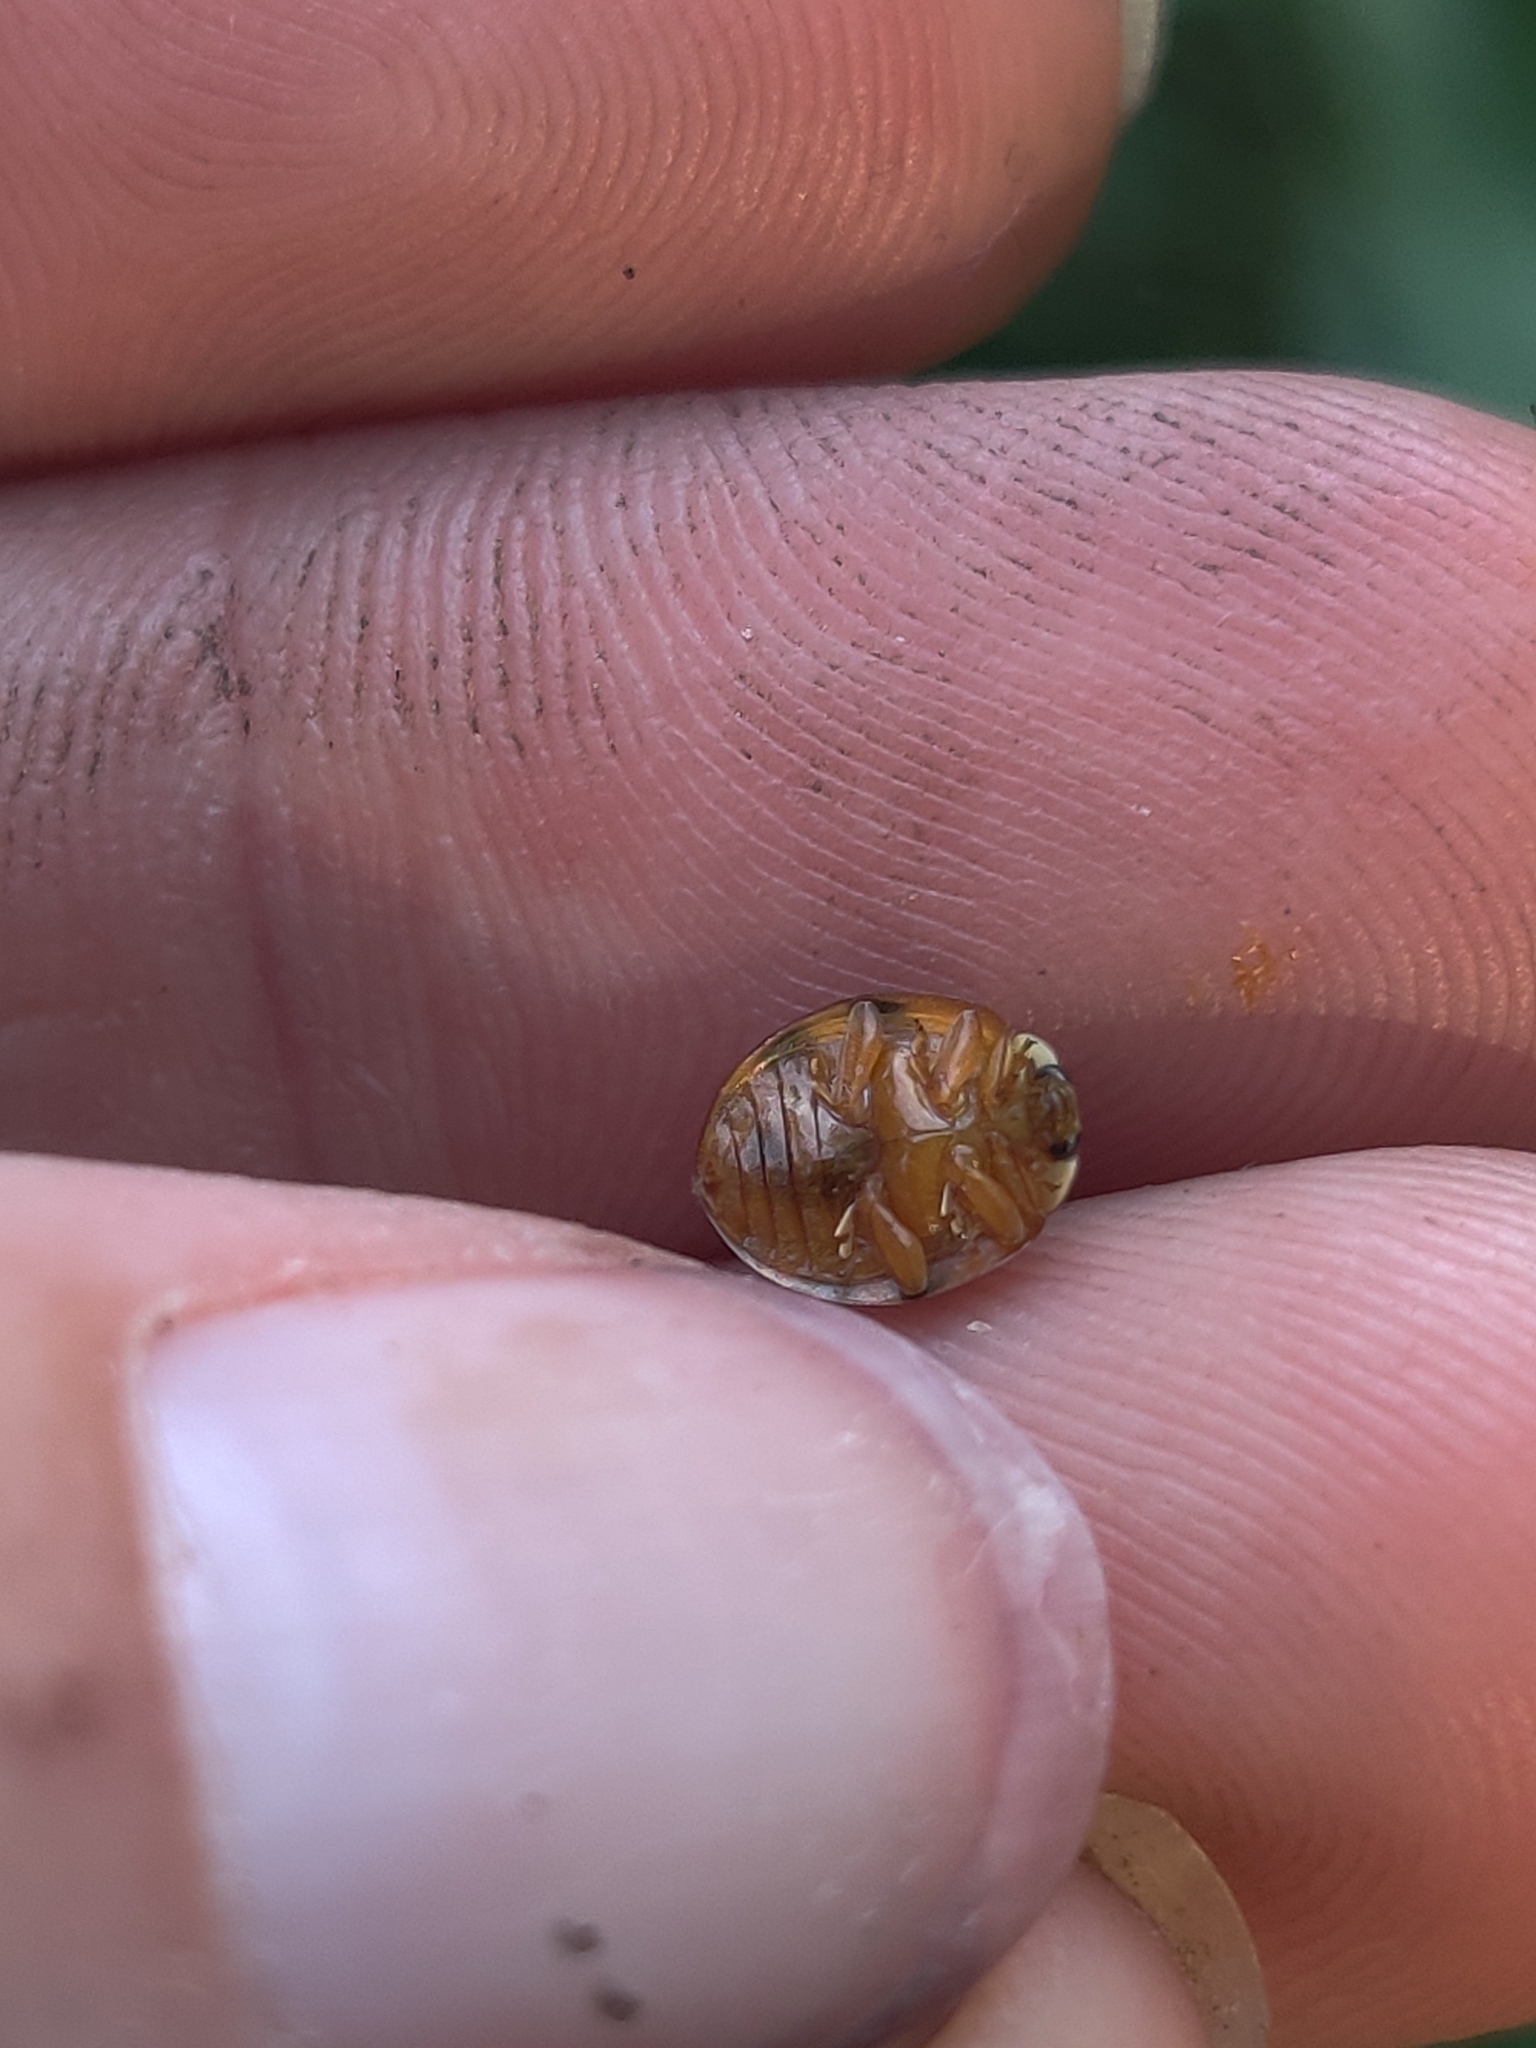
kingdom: Animalia
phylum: Arthropoda
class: Insecta
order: Coleoptera
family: Coccinellidae
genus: Harmonia
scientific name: Harmonia axyridis
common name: Harlequin ladybird
